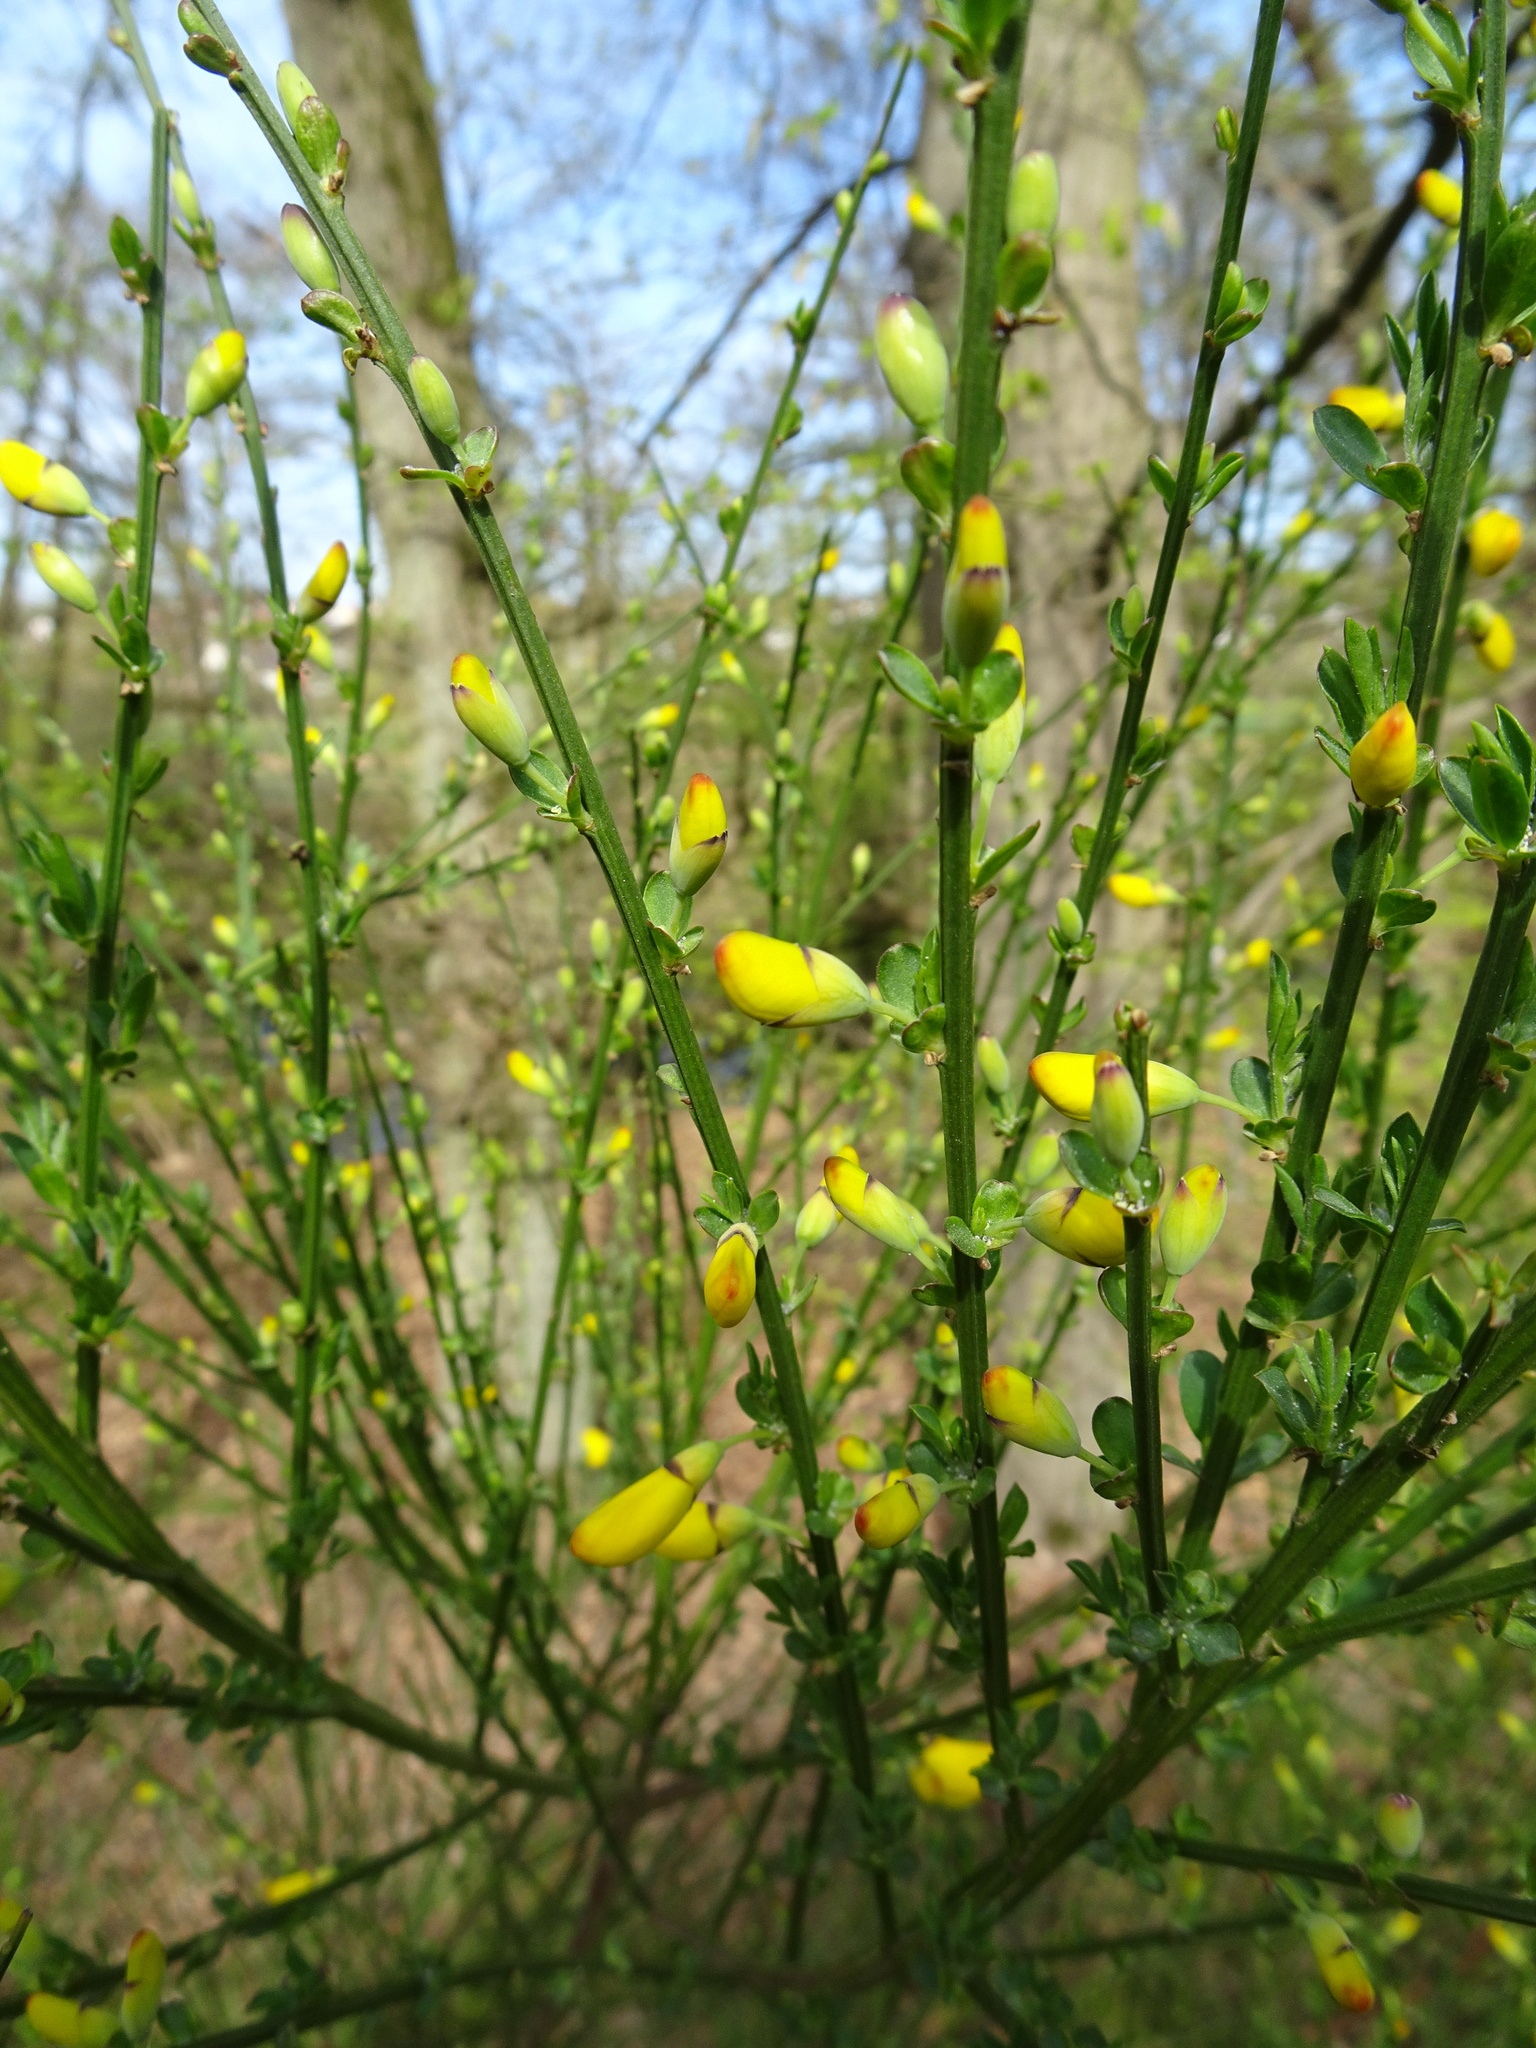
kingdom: Plantae
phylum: Tracheophyta
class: Magnoliopsida
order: Fabales
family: Fabaceae
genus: Cytisus
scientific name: Cytisus scoparius
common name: Scotch broom
